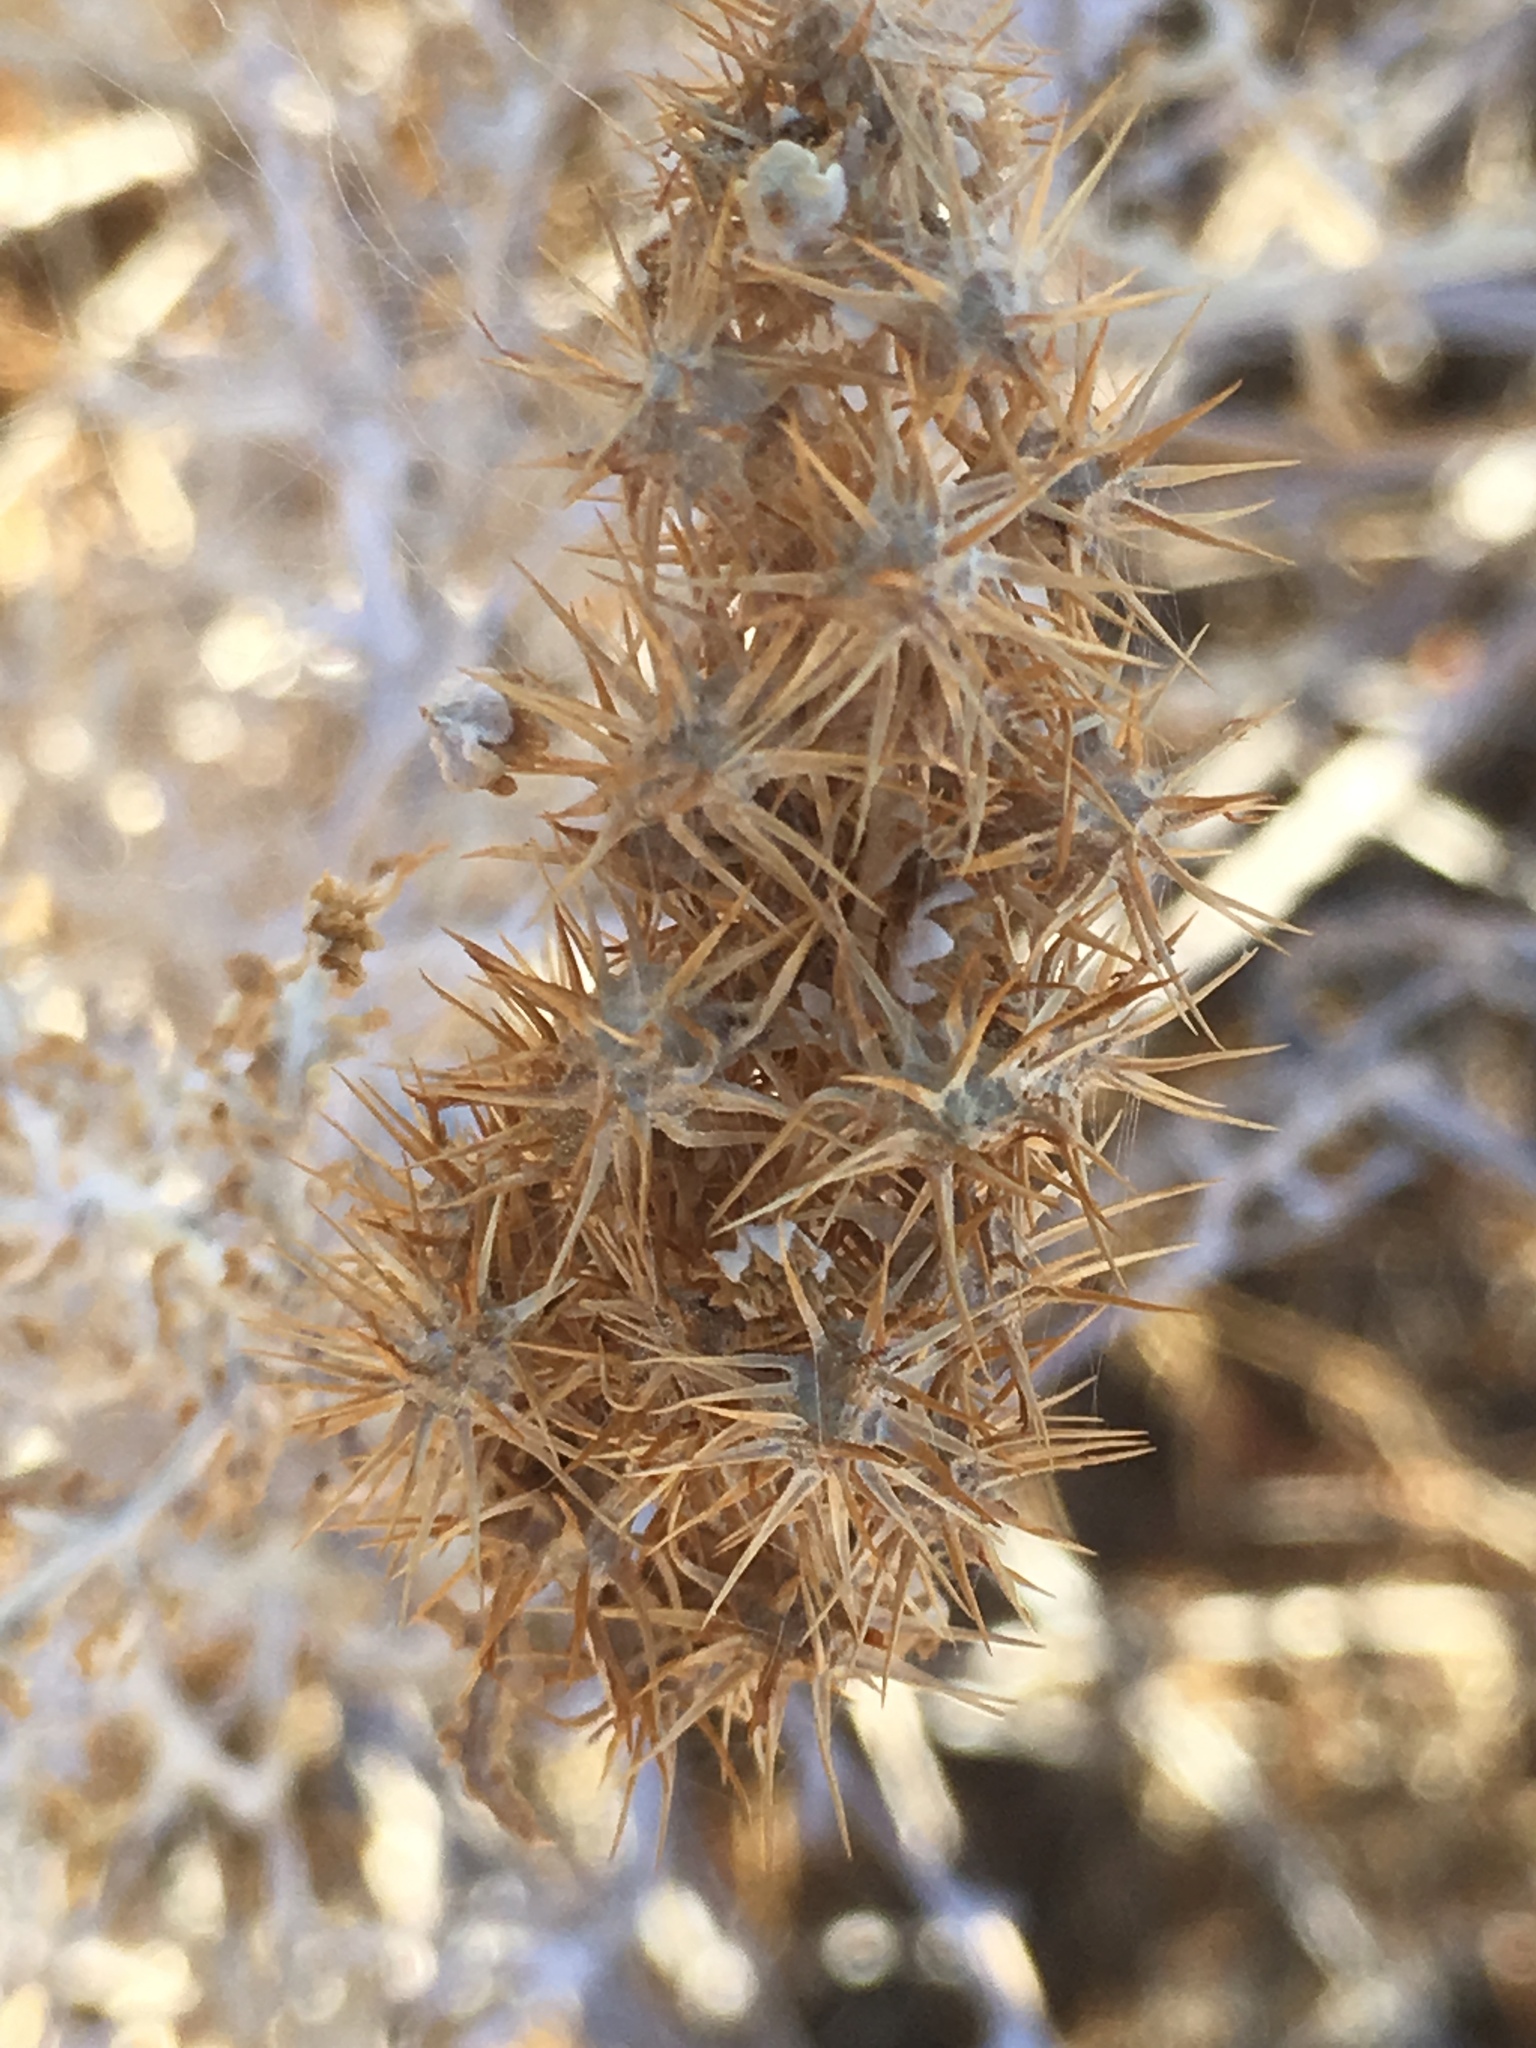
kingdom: Plantae
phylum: Tracheophyta
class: Magnoliopsida
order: Asterales
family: Asteraceae
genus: Ambrosia
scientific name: Ambrosia dumosa
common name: Bur-sage
